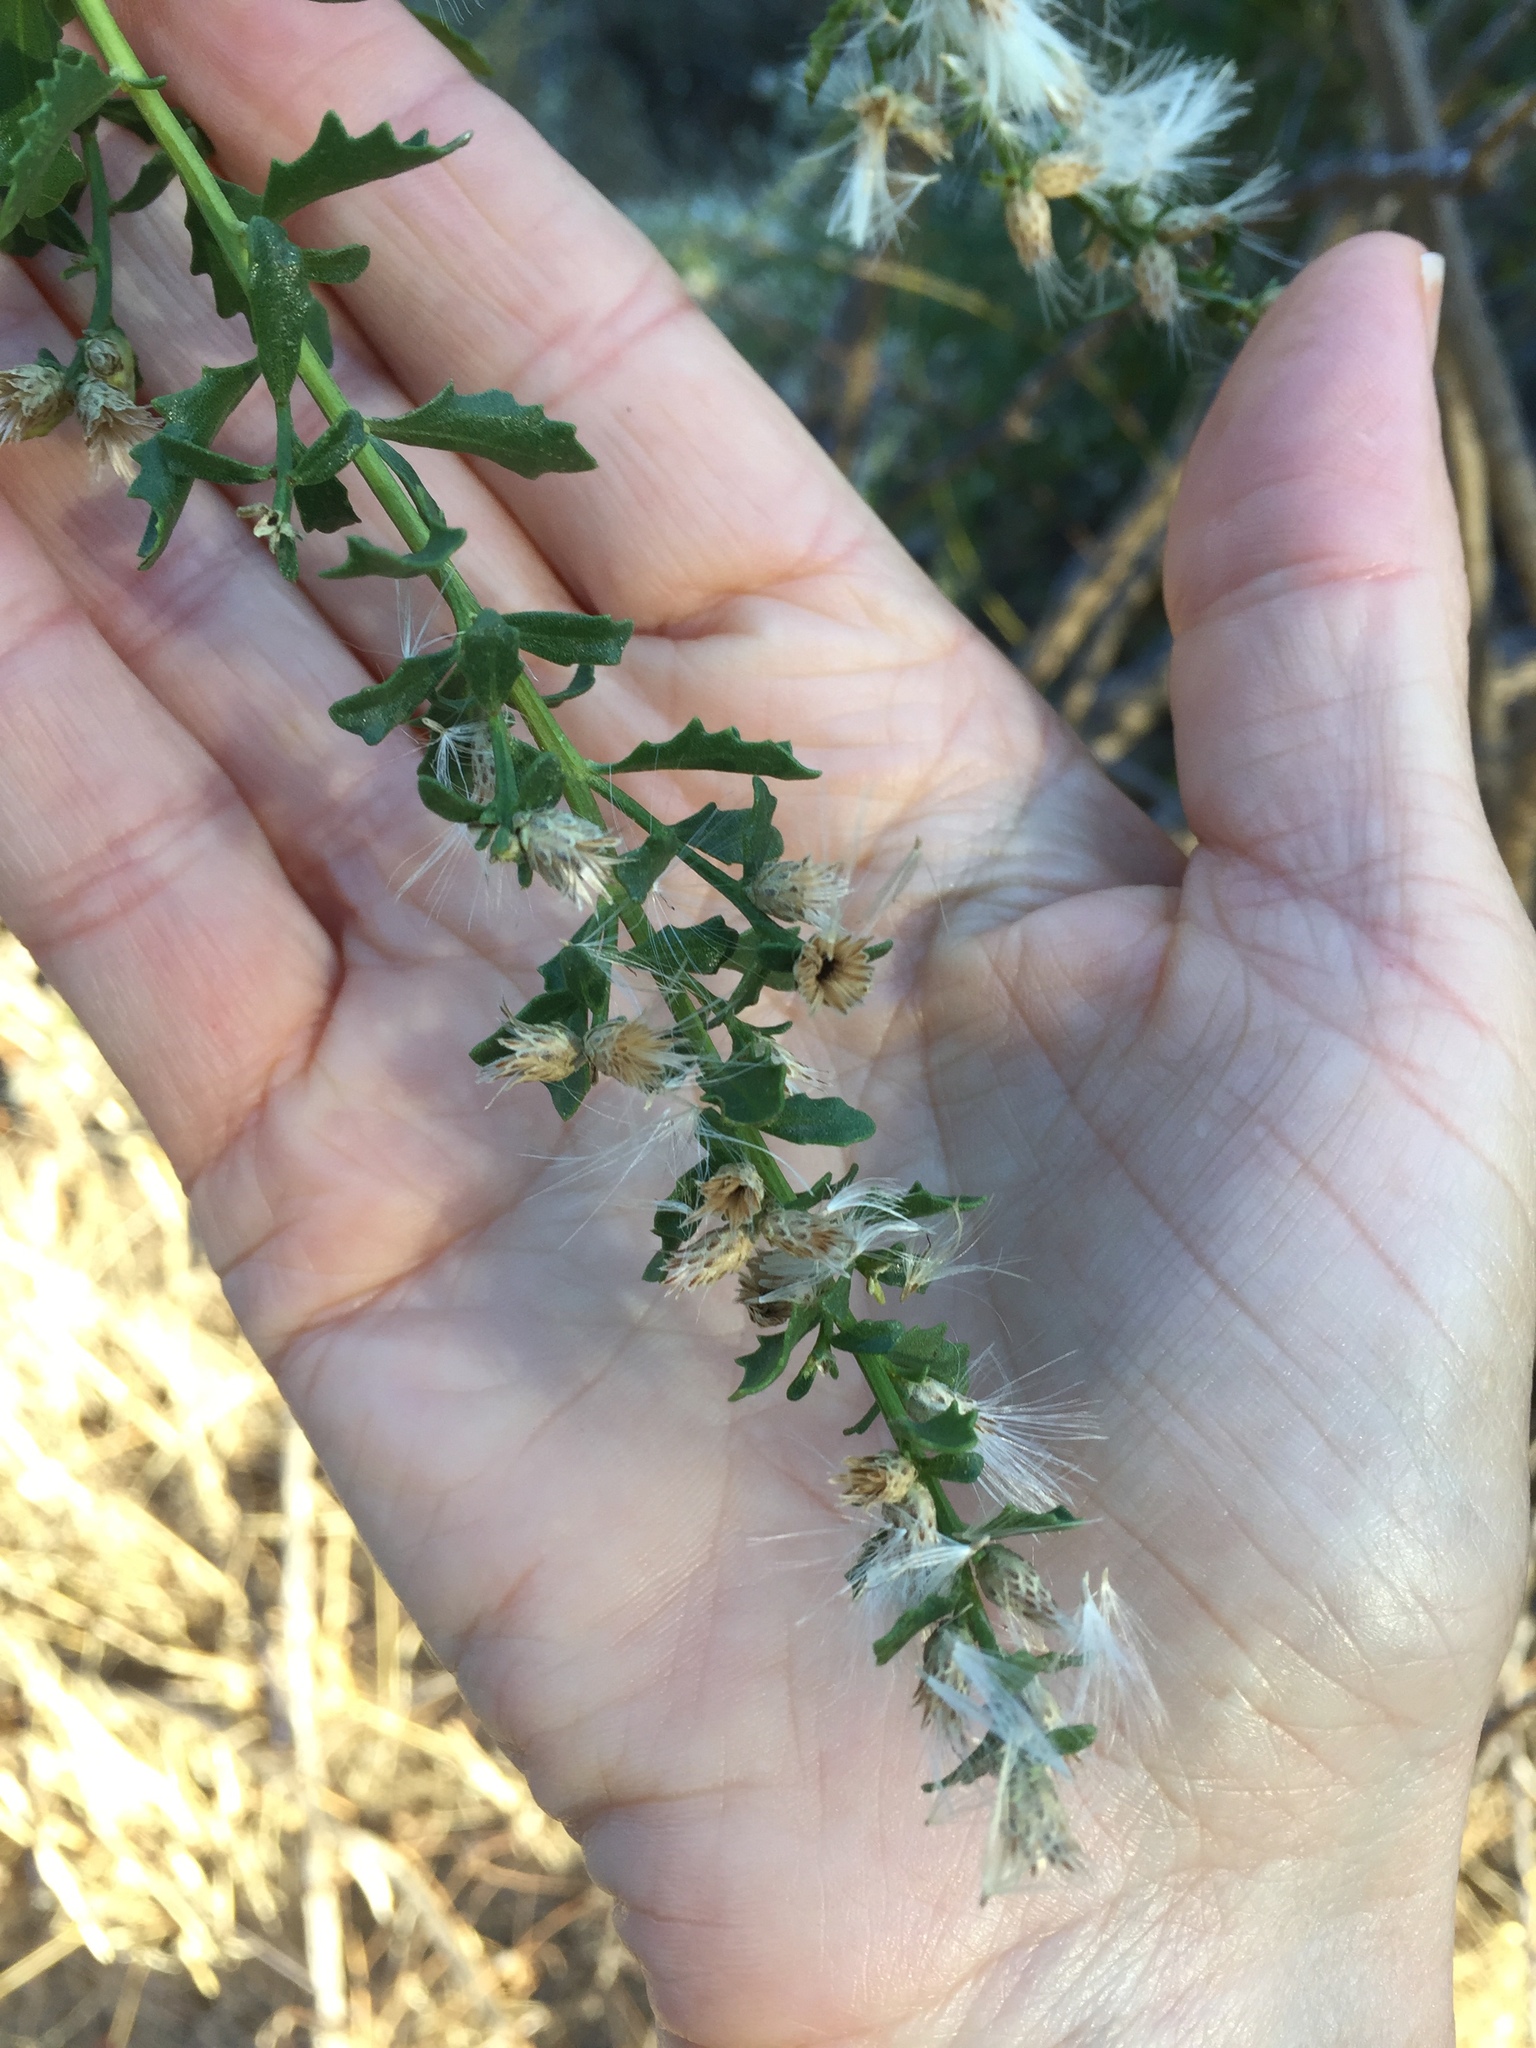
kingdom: Plantae
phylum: Tracheophyta
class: Magnoliopsida
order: Asterales
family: Asteraceae
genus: Baccharis
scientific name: Baccharis pilularis
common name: Coyotebrush
